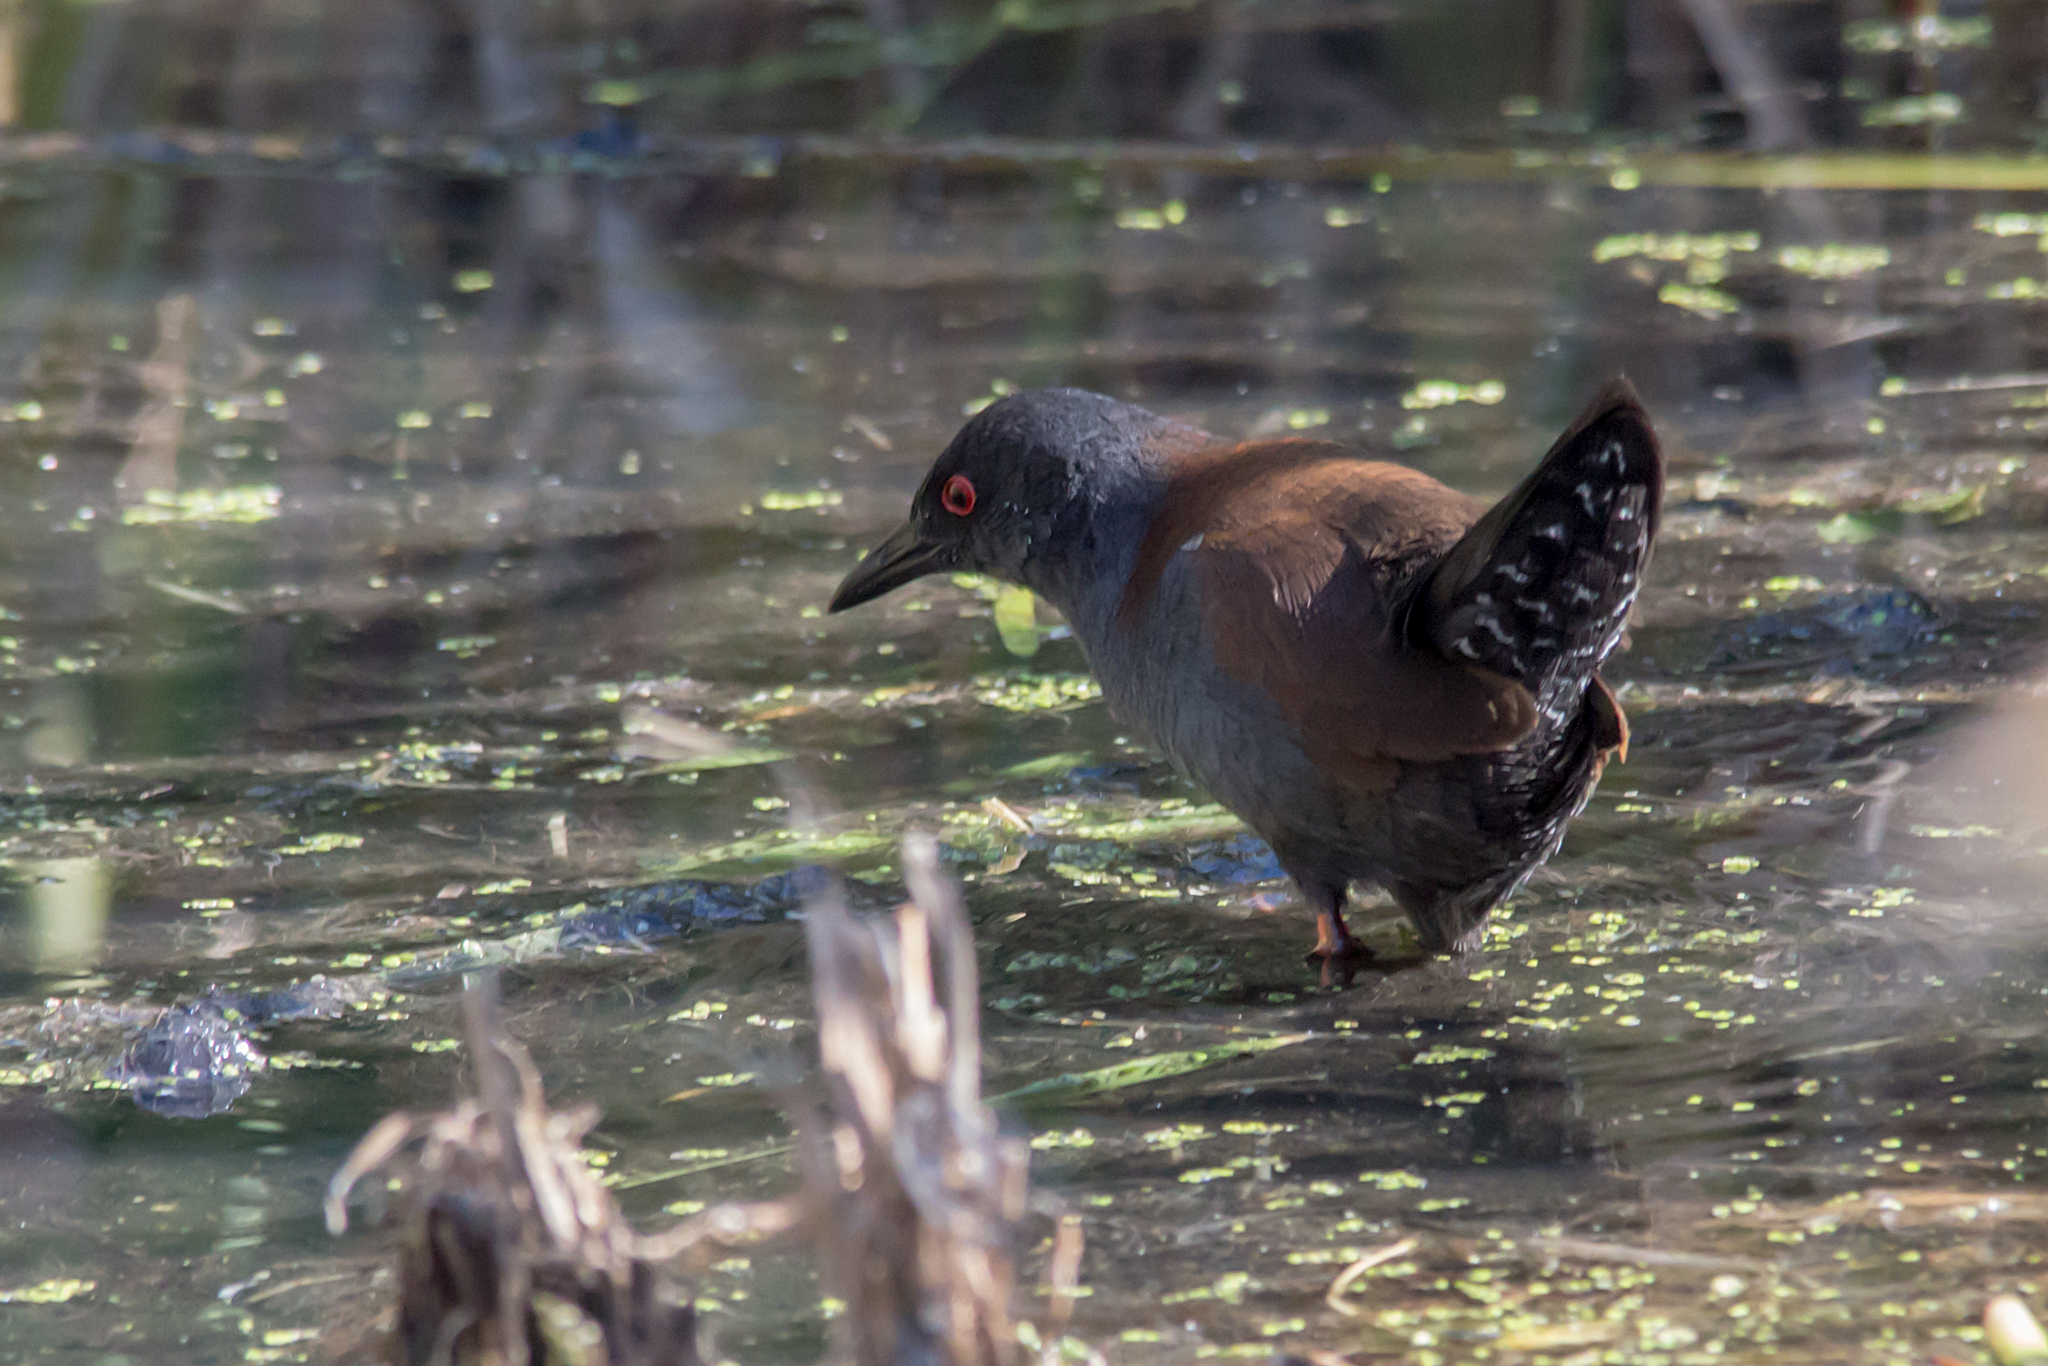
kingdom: Animalia
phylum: Chordata
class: Aves
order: Gruiformes
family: Rallidae
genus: Porzana
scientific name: Porzana tabuensis
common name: Spotless crake
